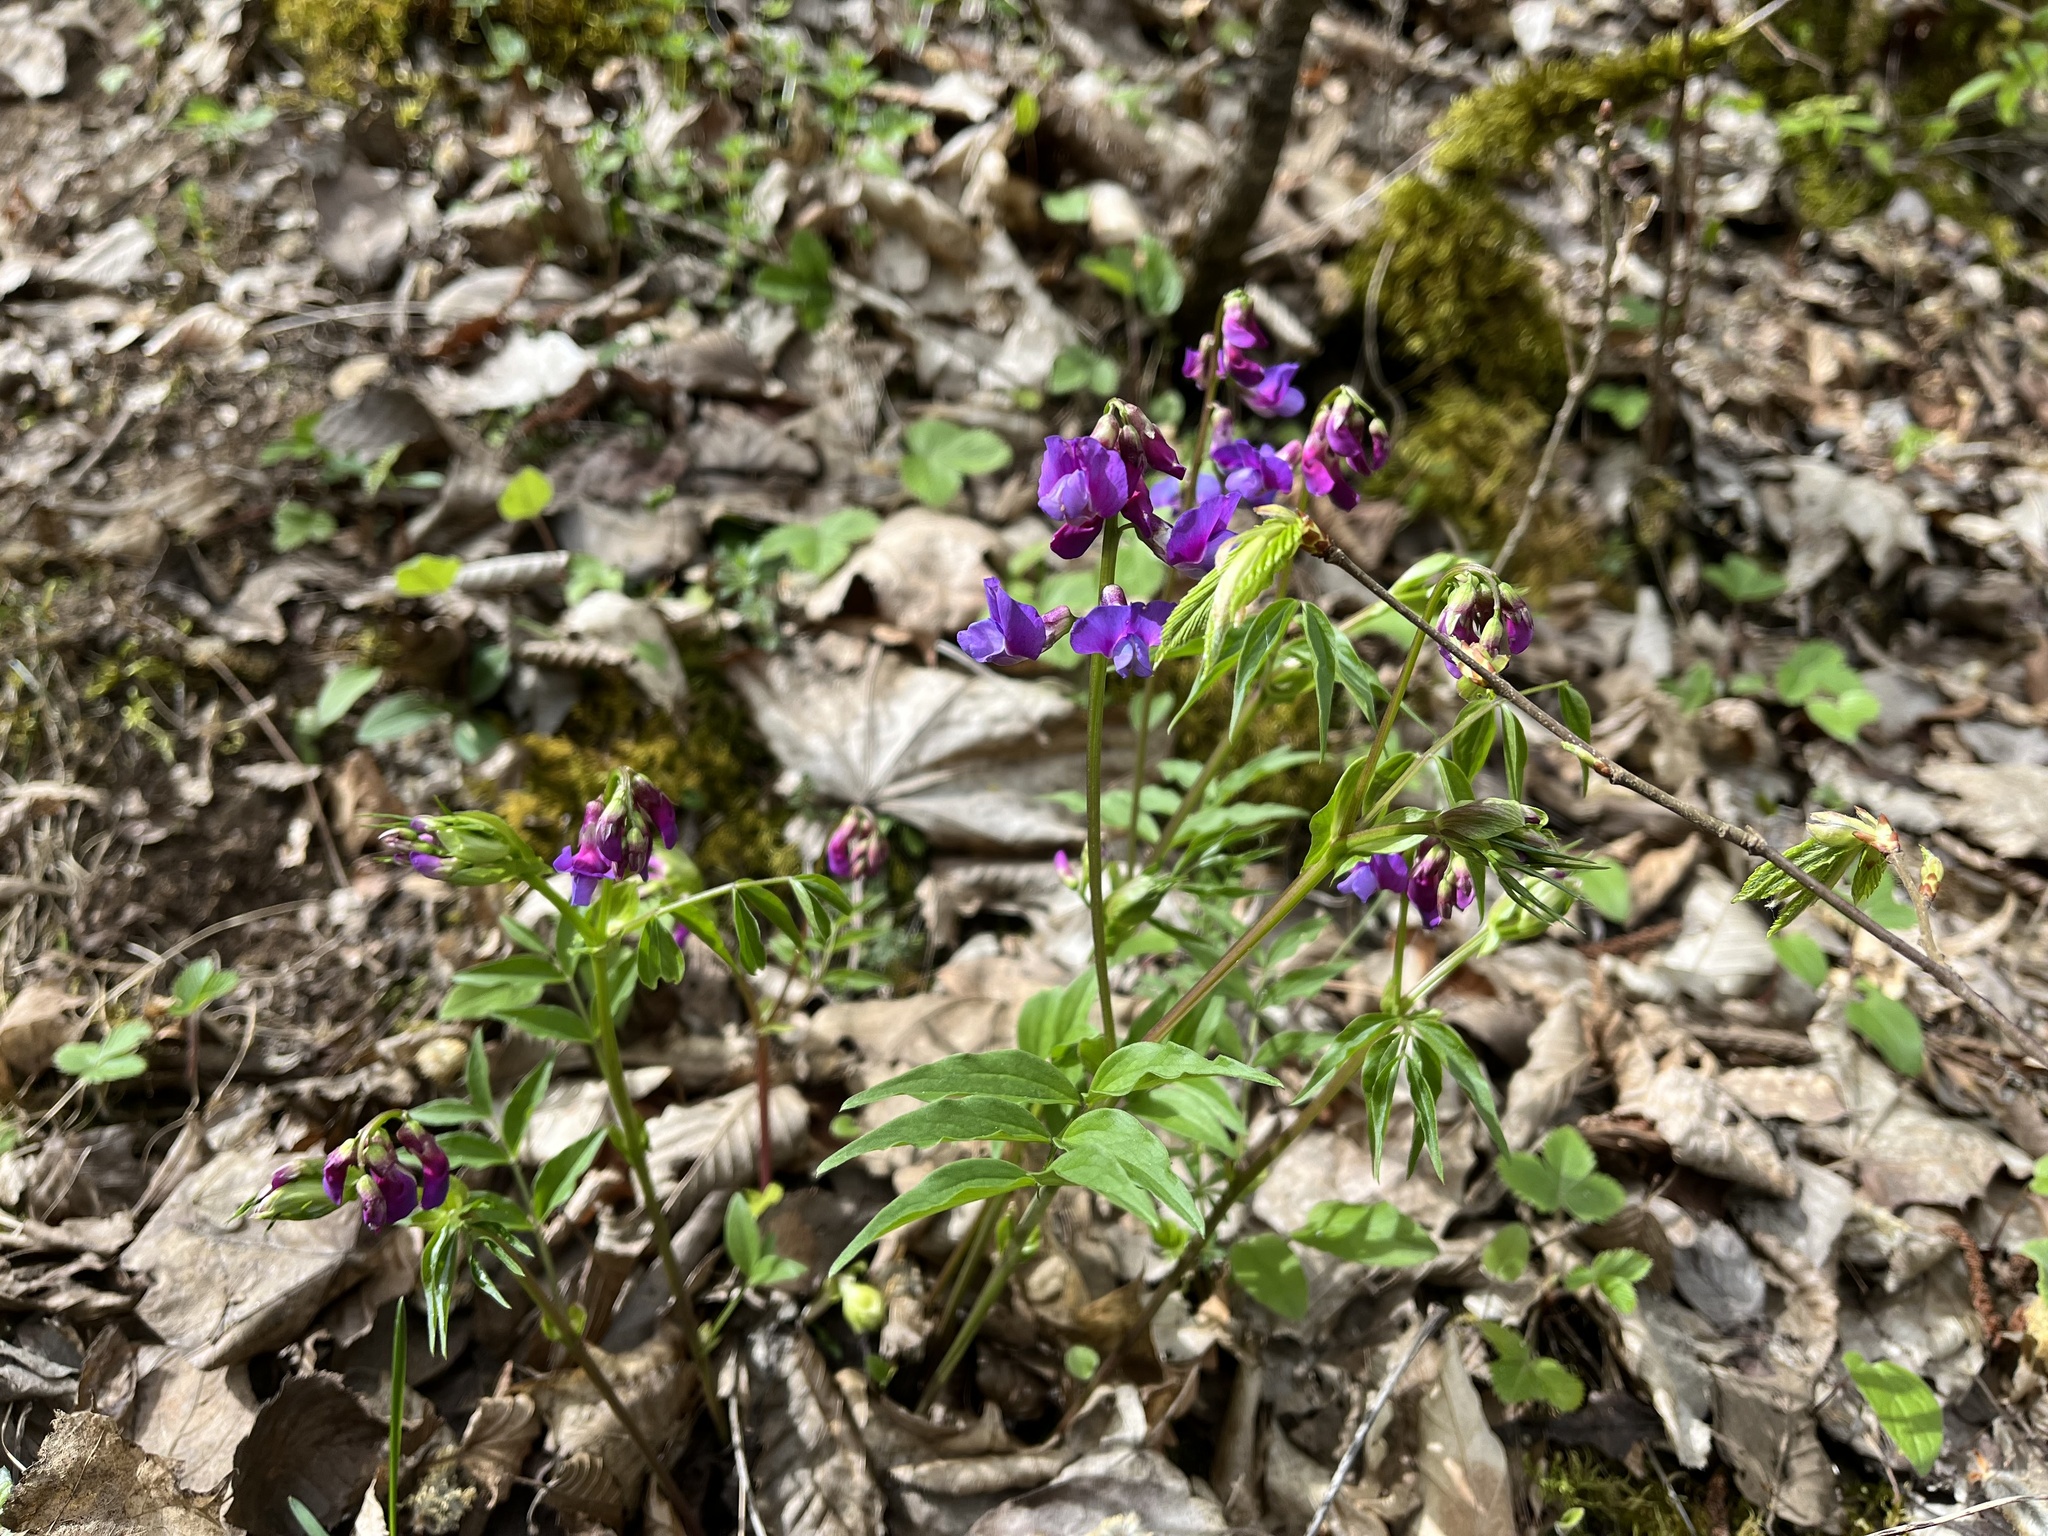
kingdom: Plantae
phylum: Tracheophyta
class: Magnoliopsida
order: Fabales
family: Fabaceae
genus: Lathyrus
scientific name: Lathyrus vernus
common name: Spring pea
